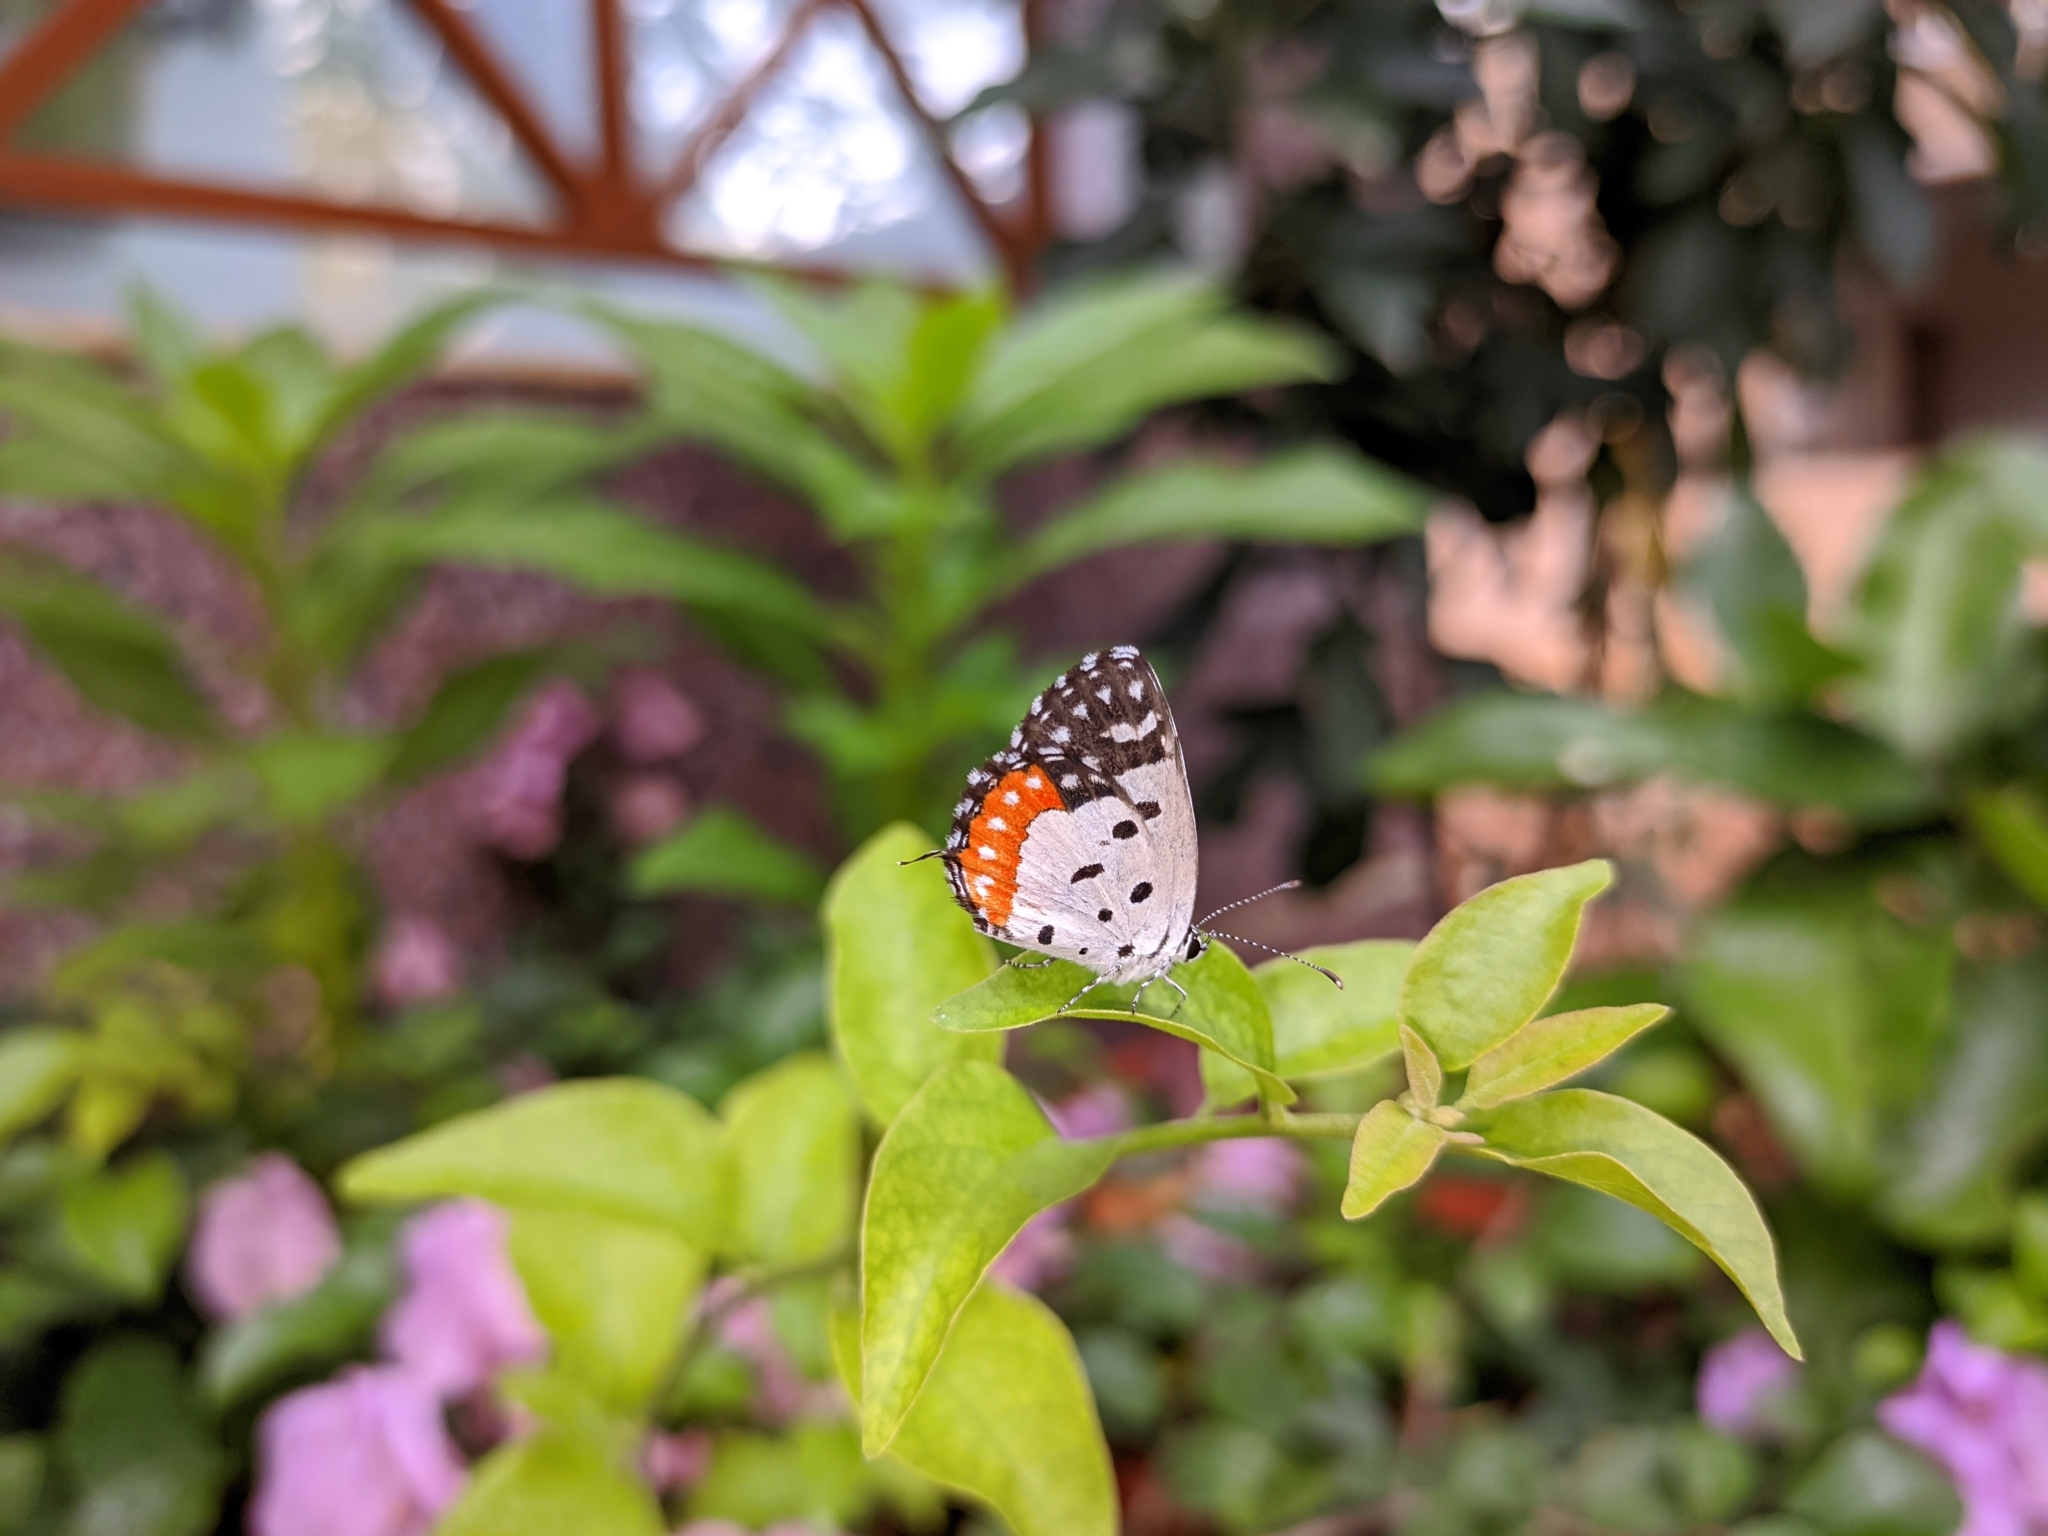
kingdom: Animalia
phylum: Arthropoda
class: Insecta
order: Lepidoptera
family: Lycaenidae
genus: Talicada
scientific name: Talicada nyseus
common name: Red pierrot
